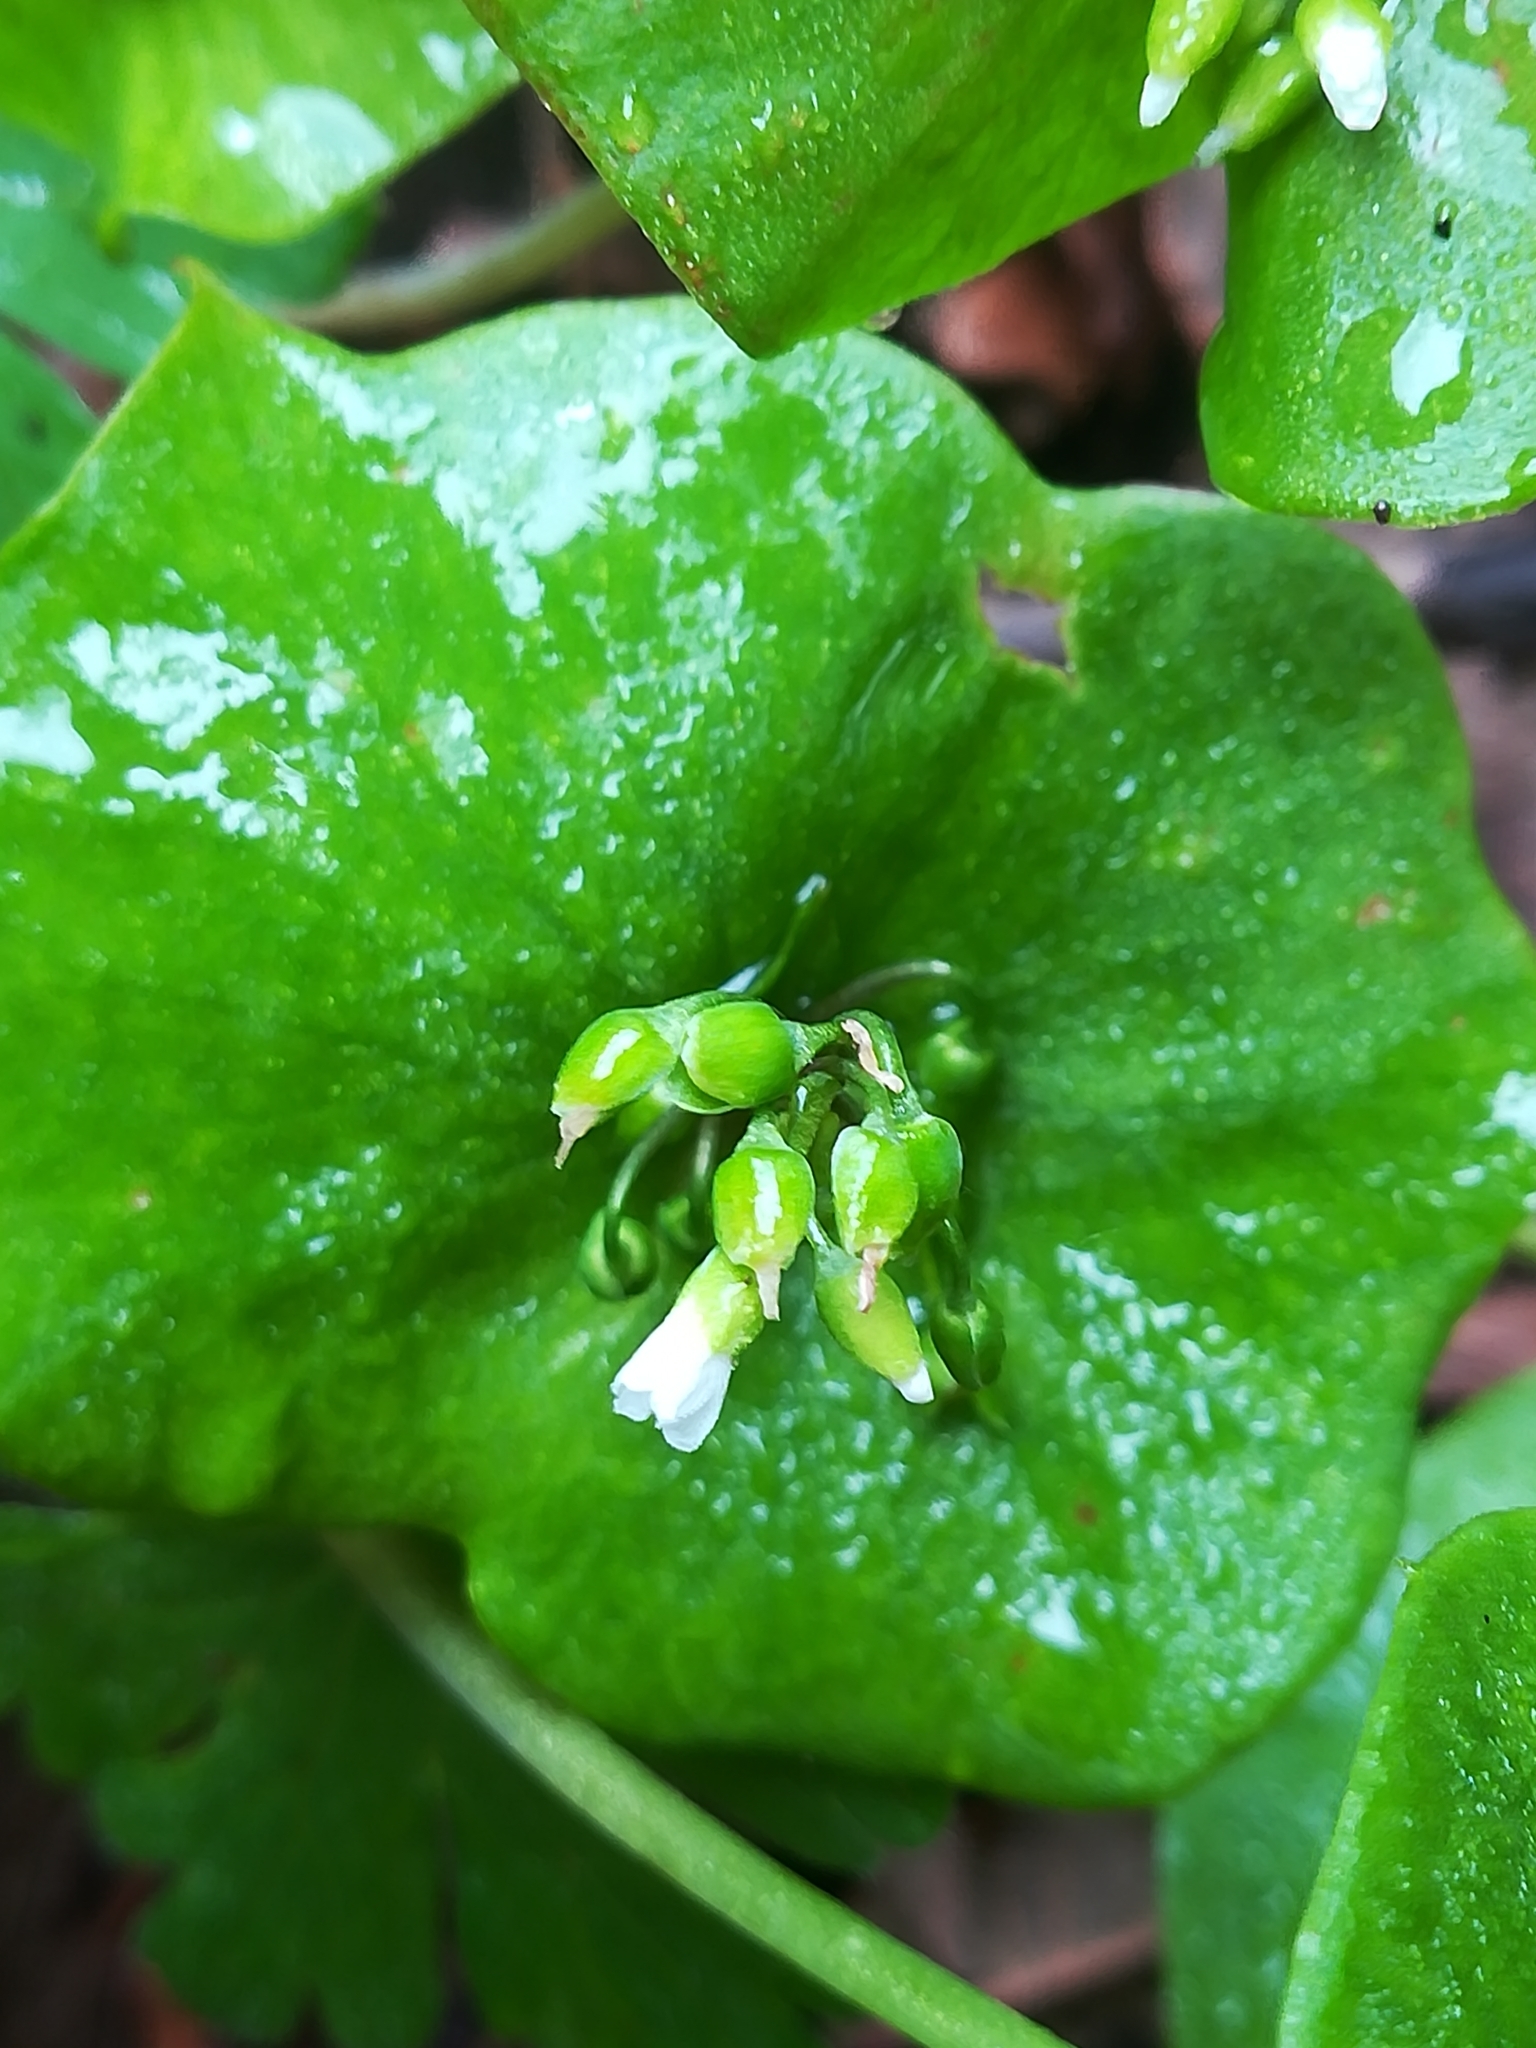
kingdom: Plantae
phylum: Tracheophyta
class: Magnoliopsida
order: Caryophyllales
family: Montiaceae
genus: Claytonia
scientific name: Claytonia perfoliata
